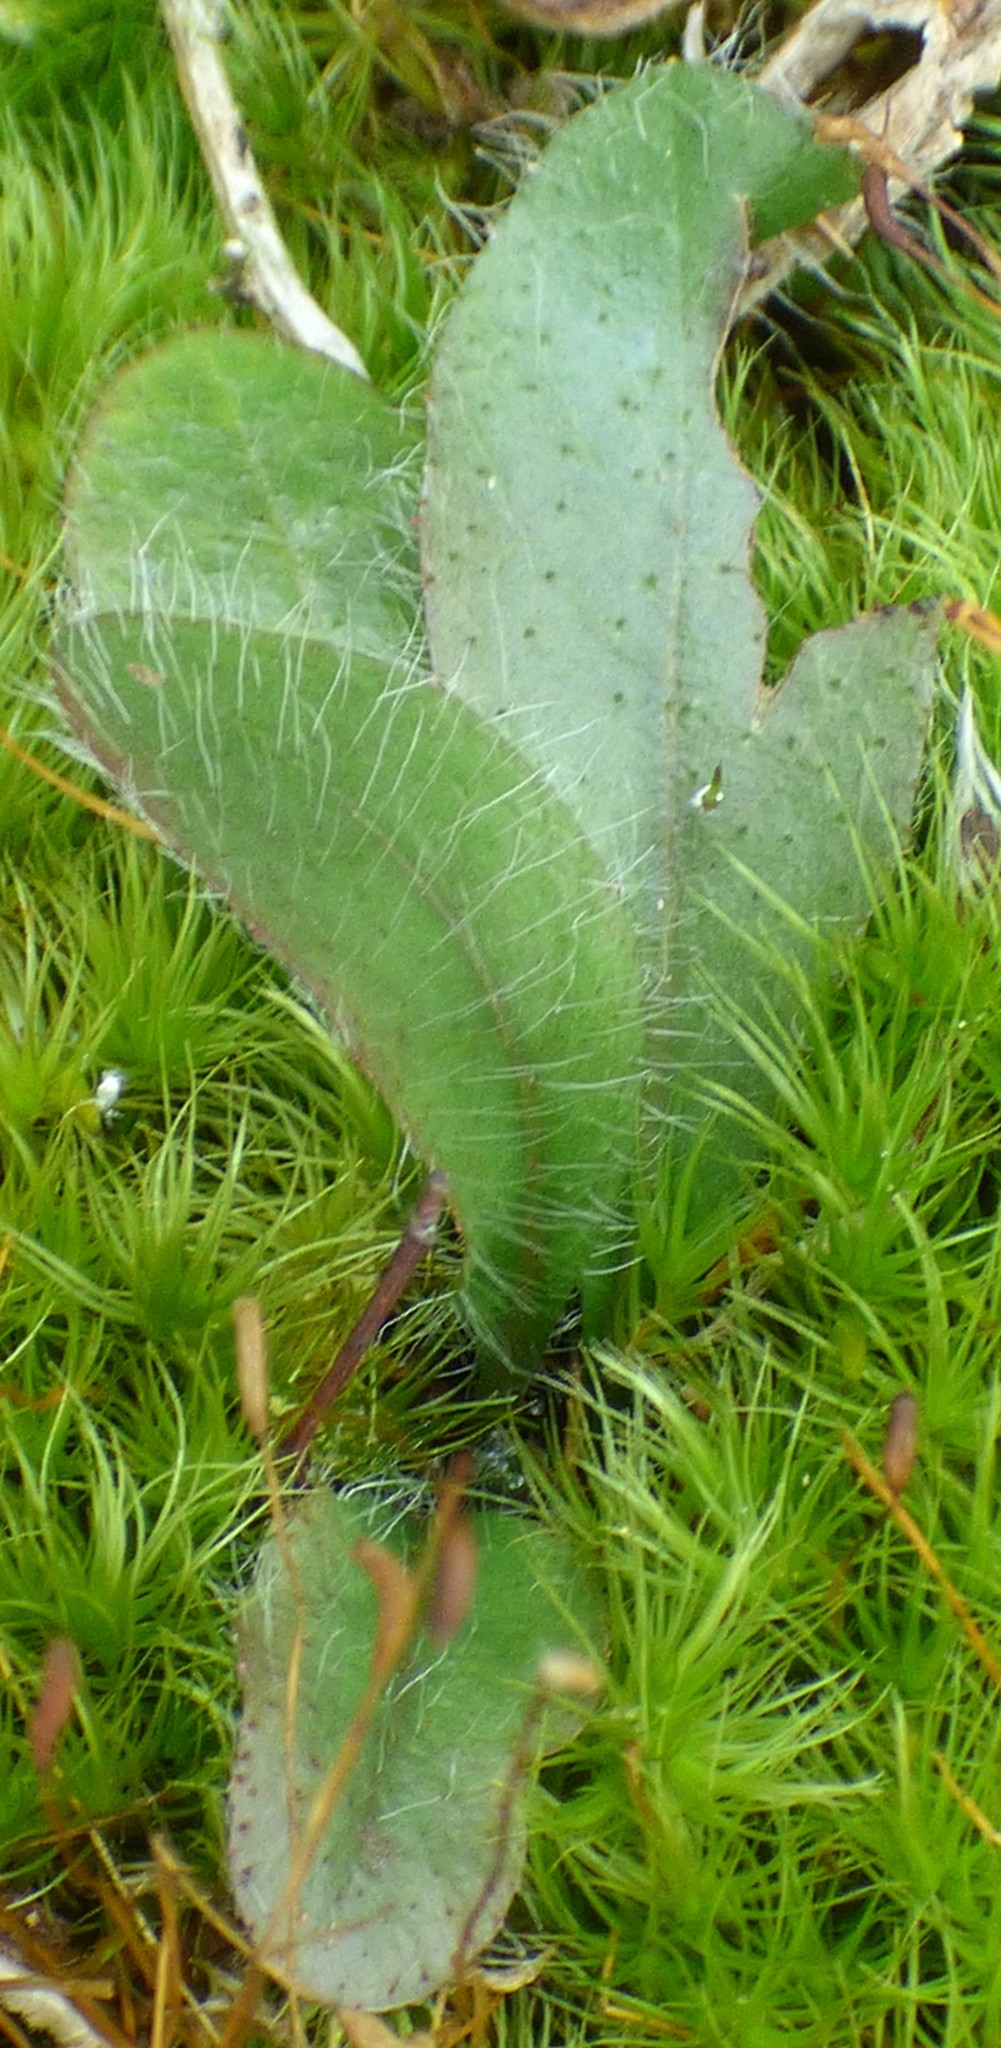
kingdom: Plantae
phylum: Tracheophyta
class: Magnoliopsida
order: Asterales
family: Asteraceae
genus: Hieracium
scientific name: Hieracium venosum
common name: Rattlesnake hawkweed
